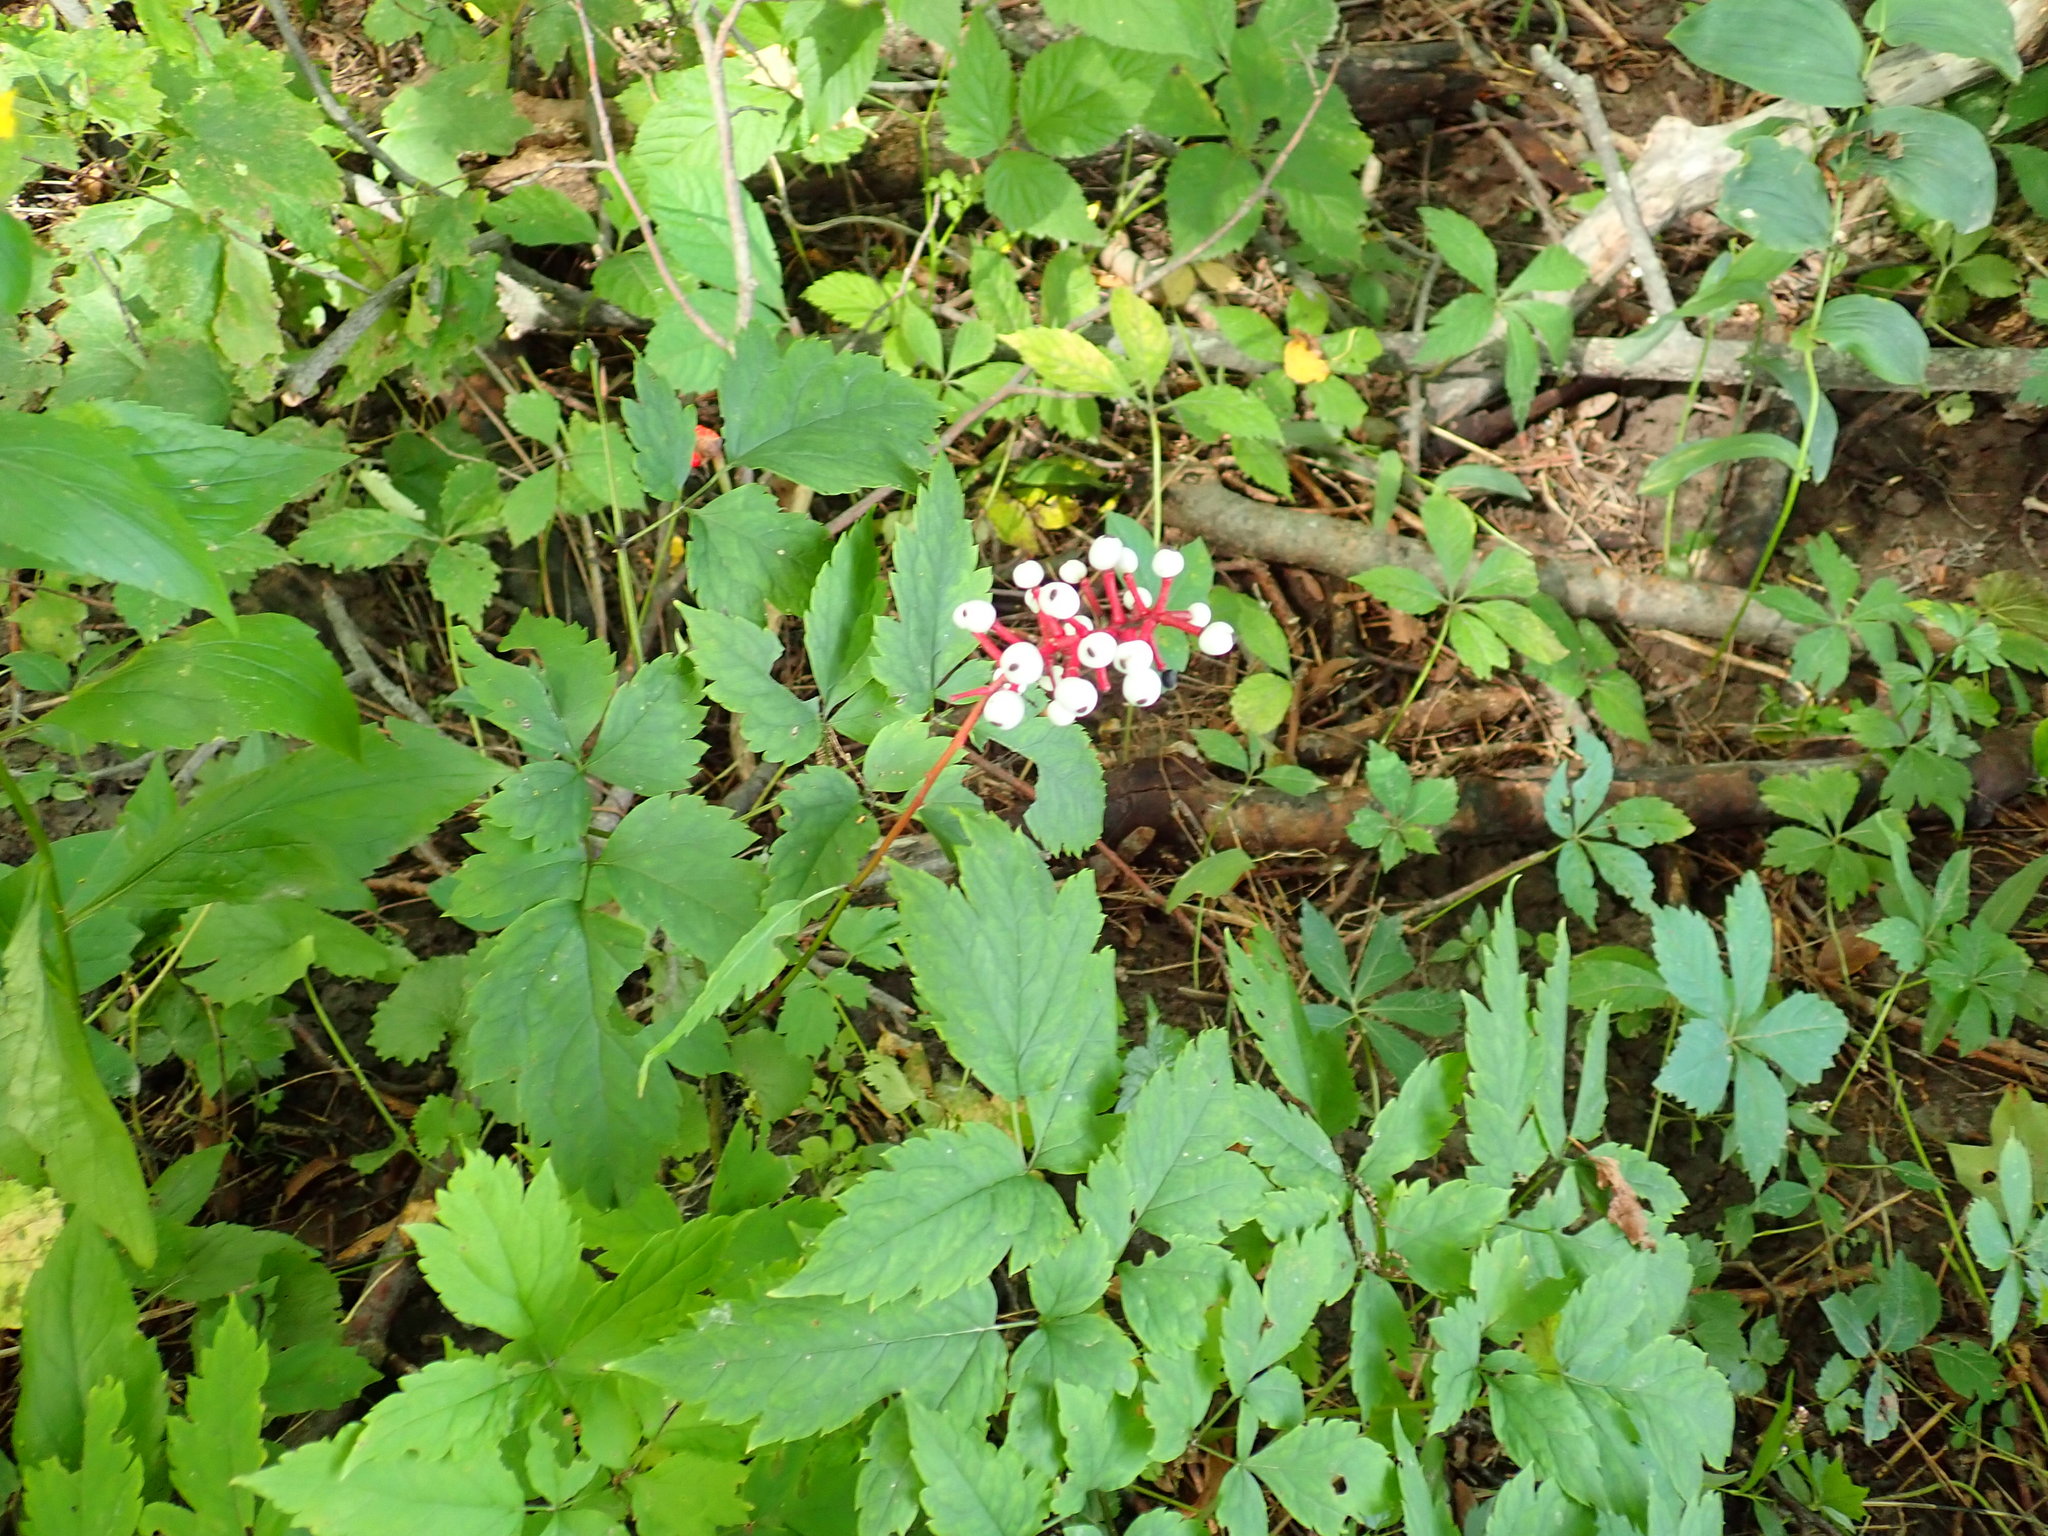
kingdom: Plantae
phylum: Tracheophyta
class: Magnoliopsida
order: Ranunculales
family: Ranunculaceae
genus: Actaea
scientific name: Actaea pachypoda
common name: Doll's-eyes
